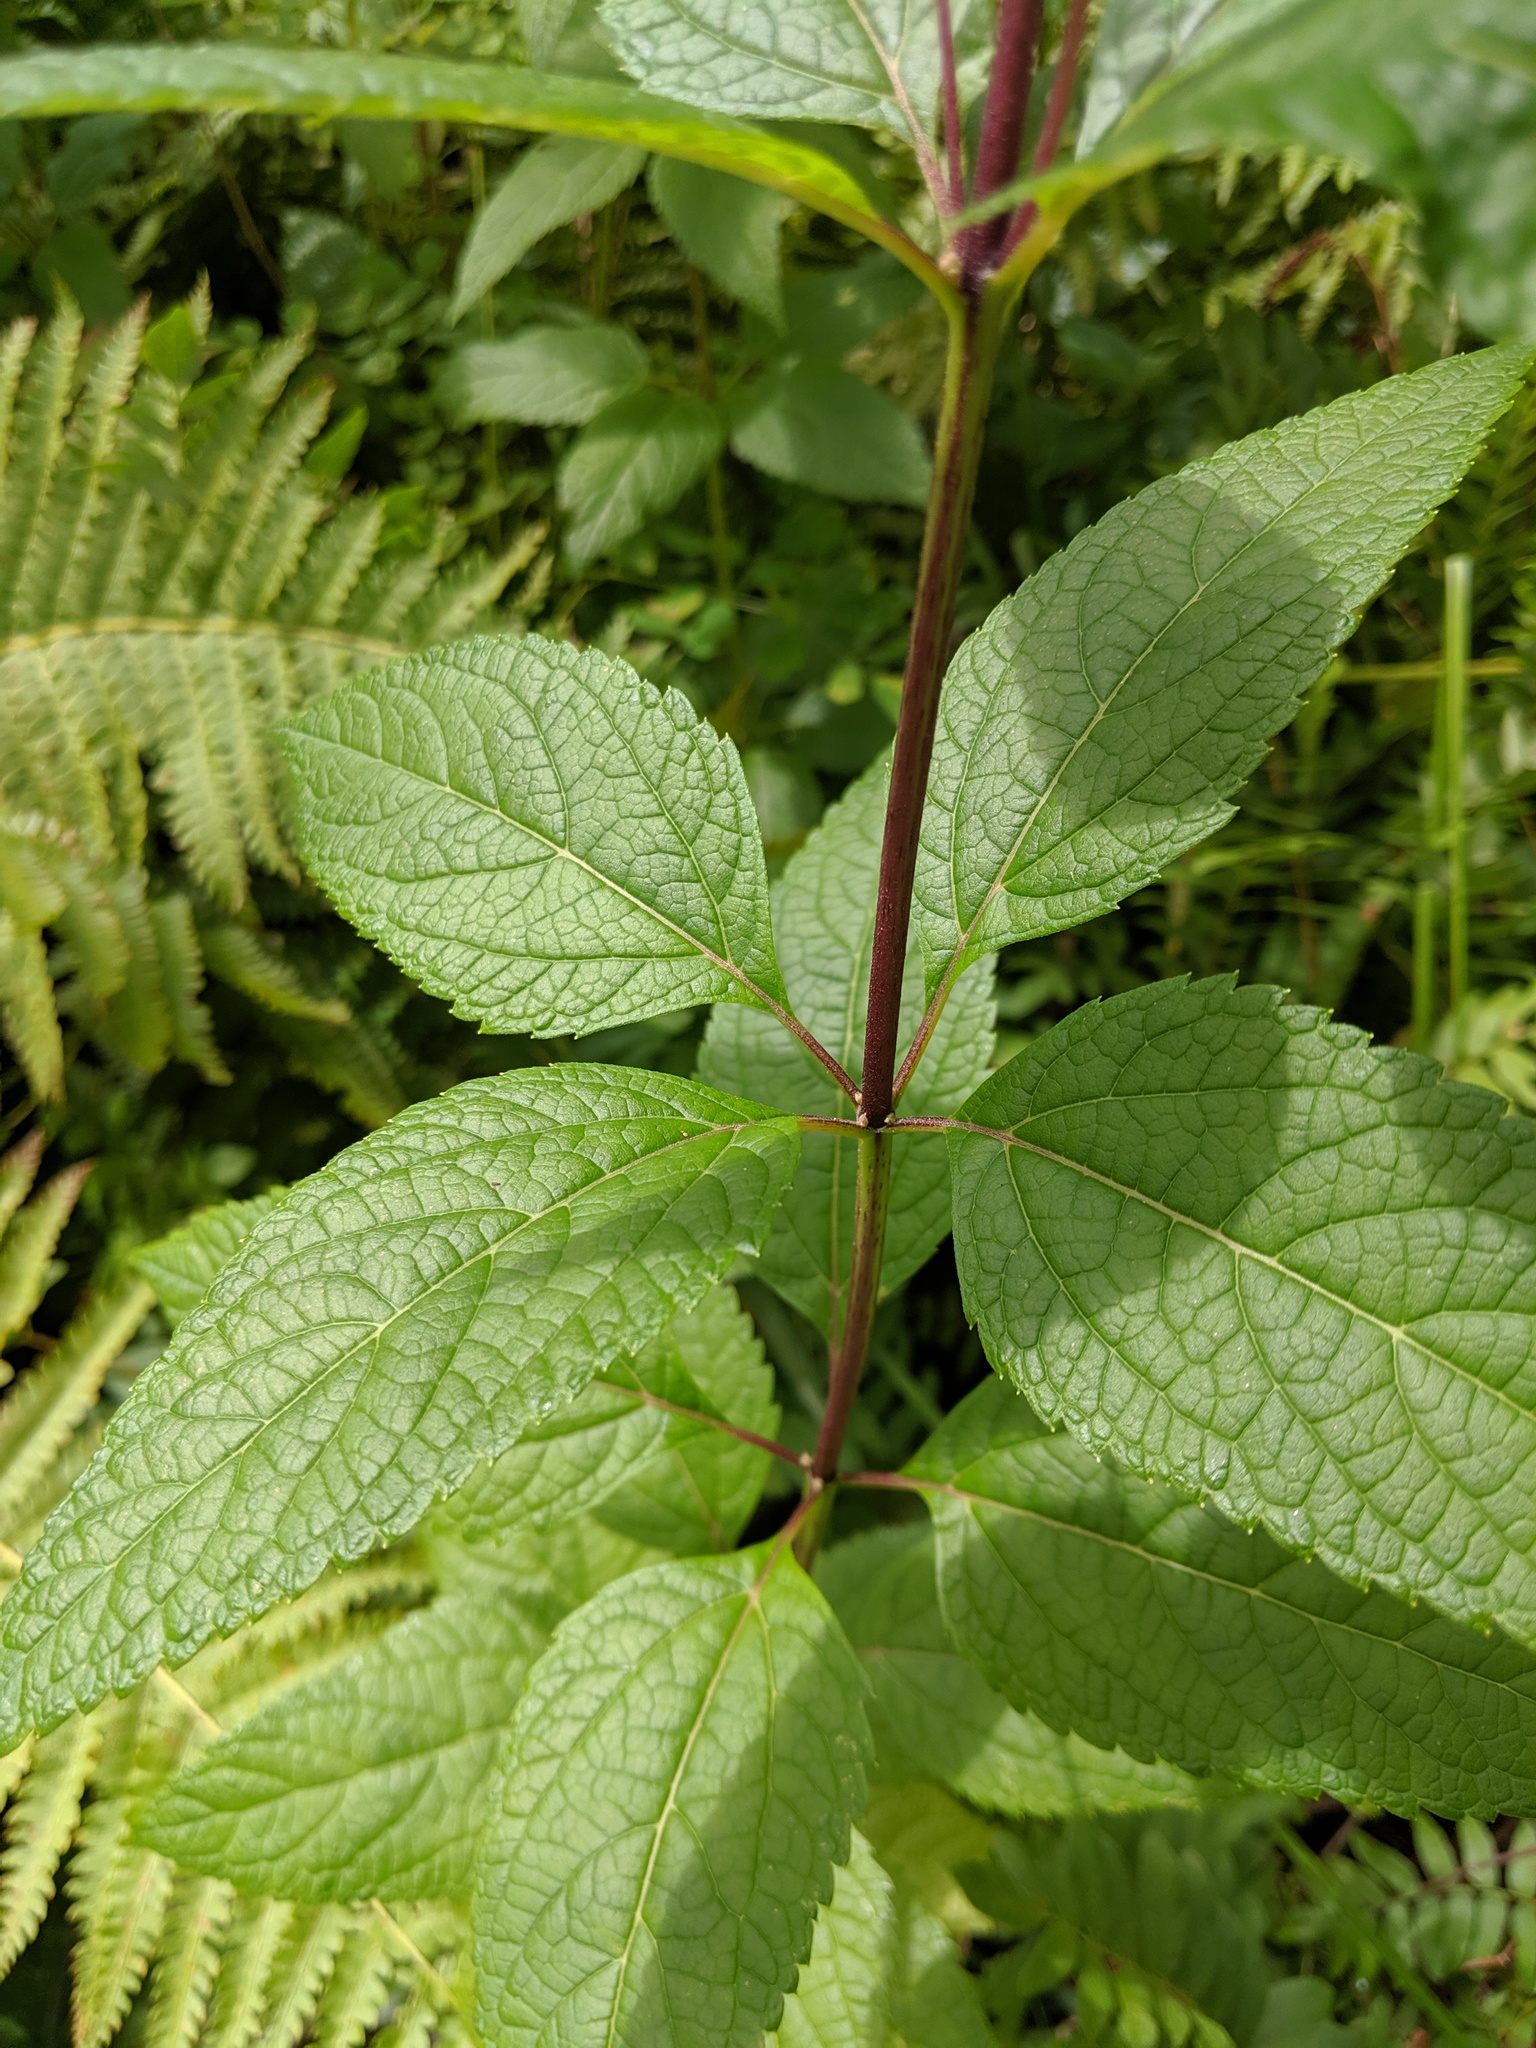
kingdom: Plantae
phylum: Tracheophyta
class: Magnoliopsida
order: Asterales
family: Asteraceae
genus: Eutrochium
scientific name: Eutrochium dubium
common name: Coastal plain joe pye weed
